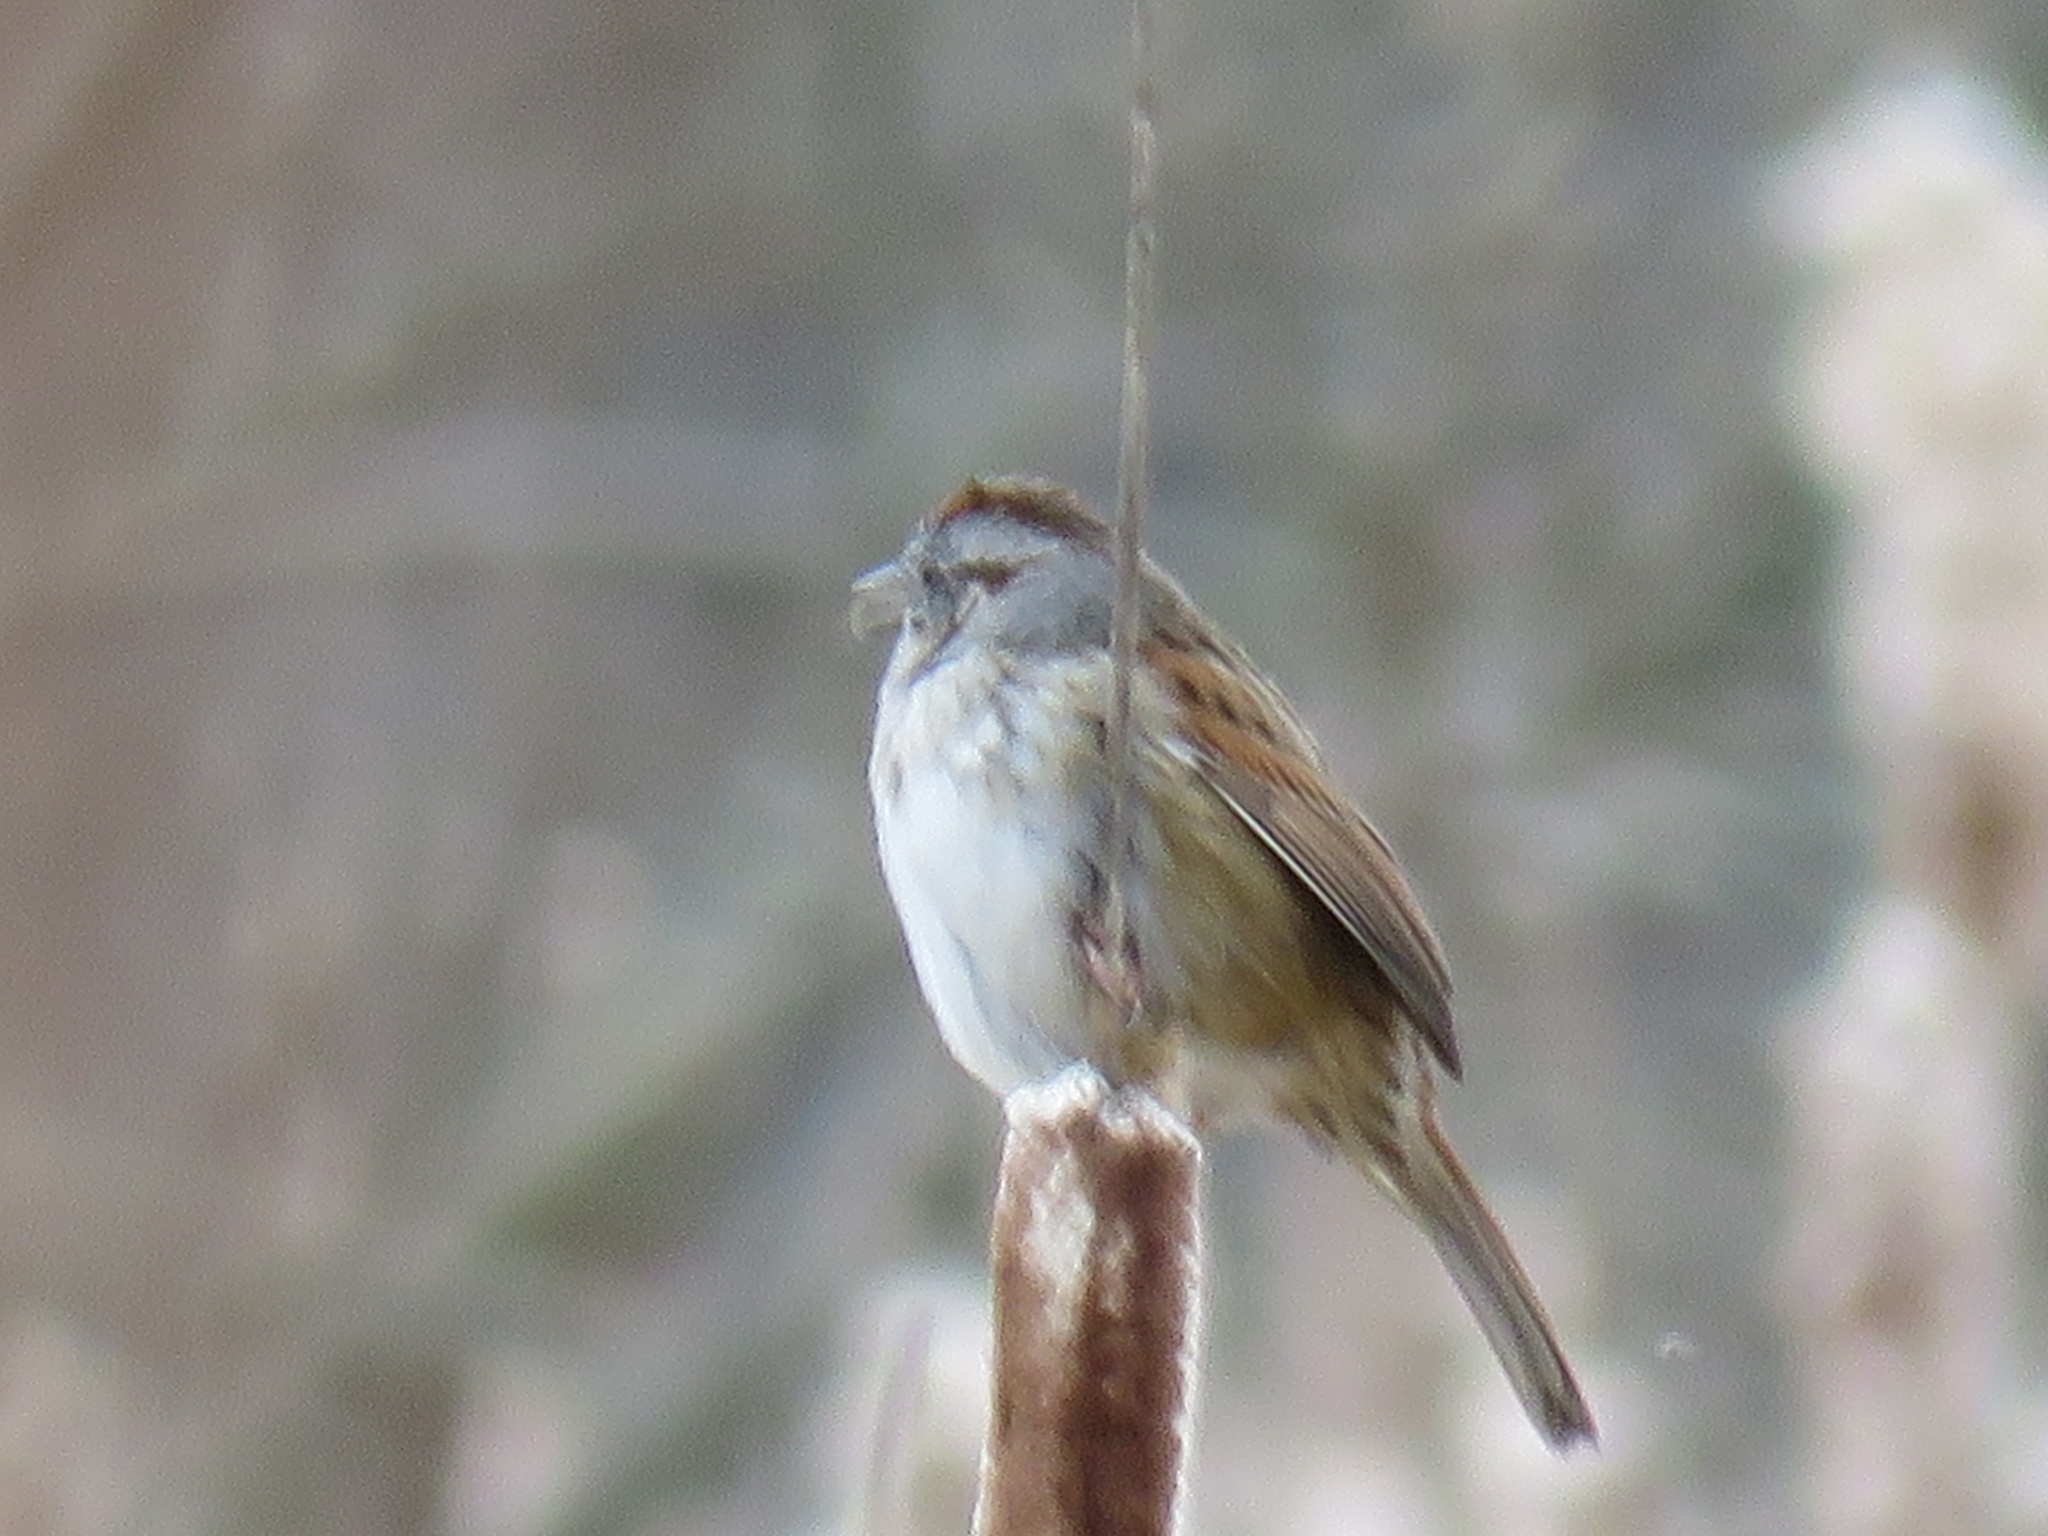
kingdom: Animalia
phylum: Chordata
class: Aves
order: Passeriformes
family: Passerellidae
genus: Melospiza
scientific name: Melospiza georgiana
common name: Swamp sparrow
